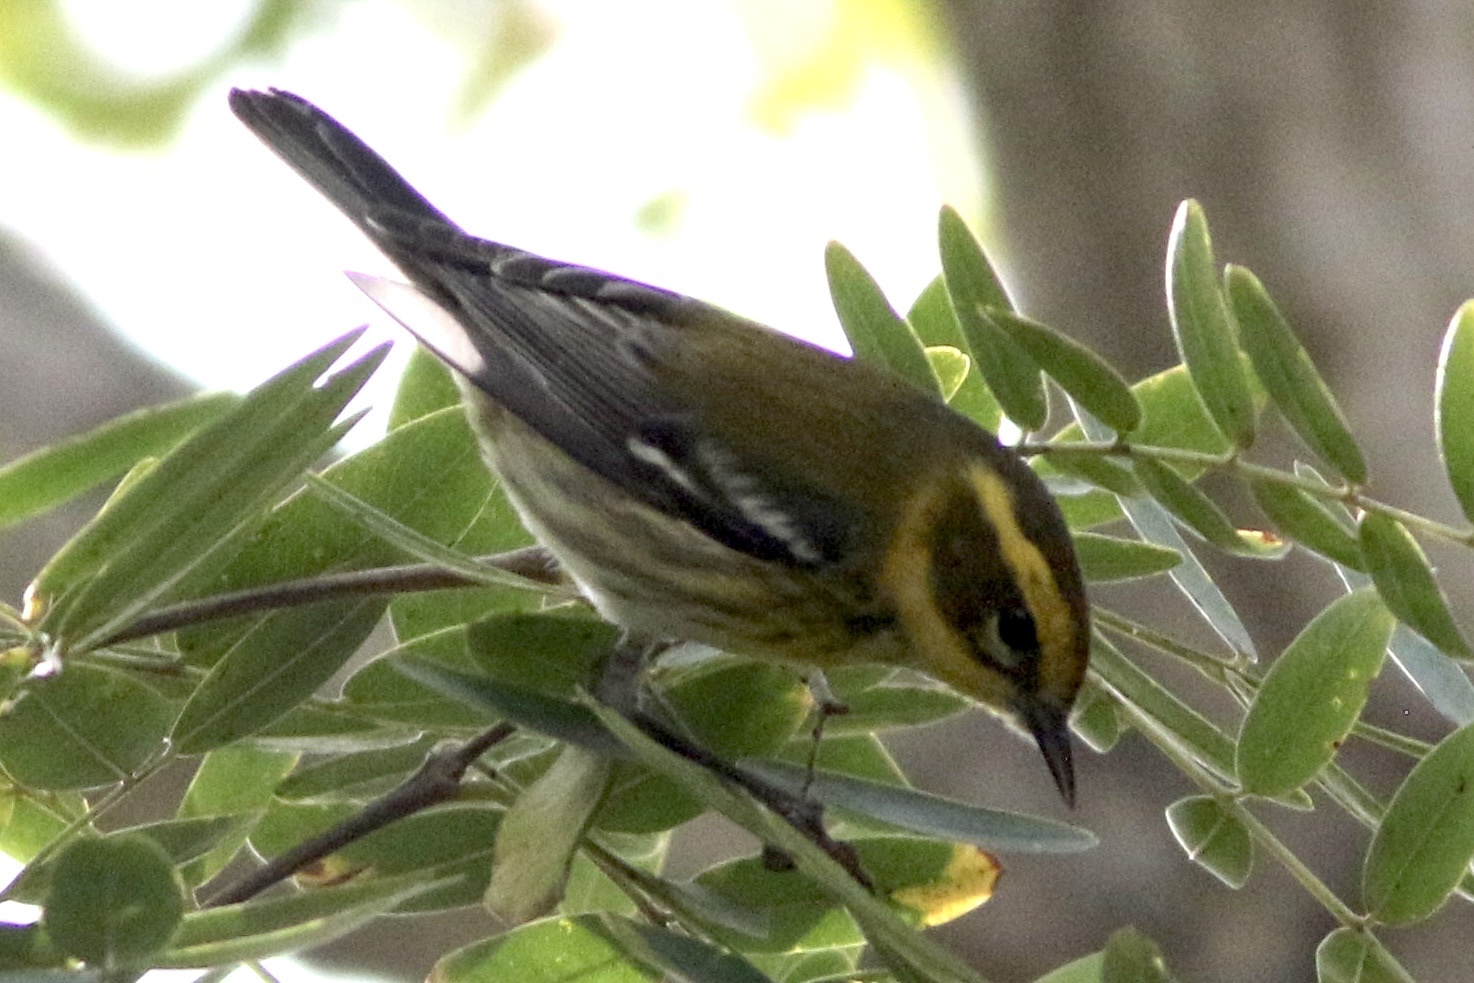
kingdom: Animalia
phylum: Chordata
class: Aves
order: Passeriformes
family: Parulidae
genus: Setophaga
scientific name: Setophaga townsendi
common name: Townsend's warbler
